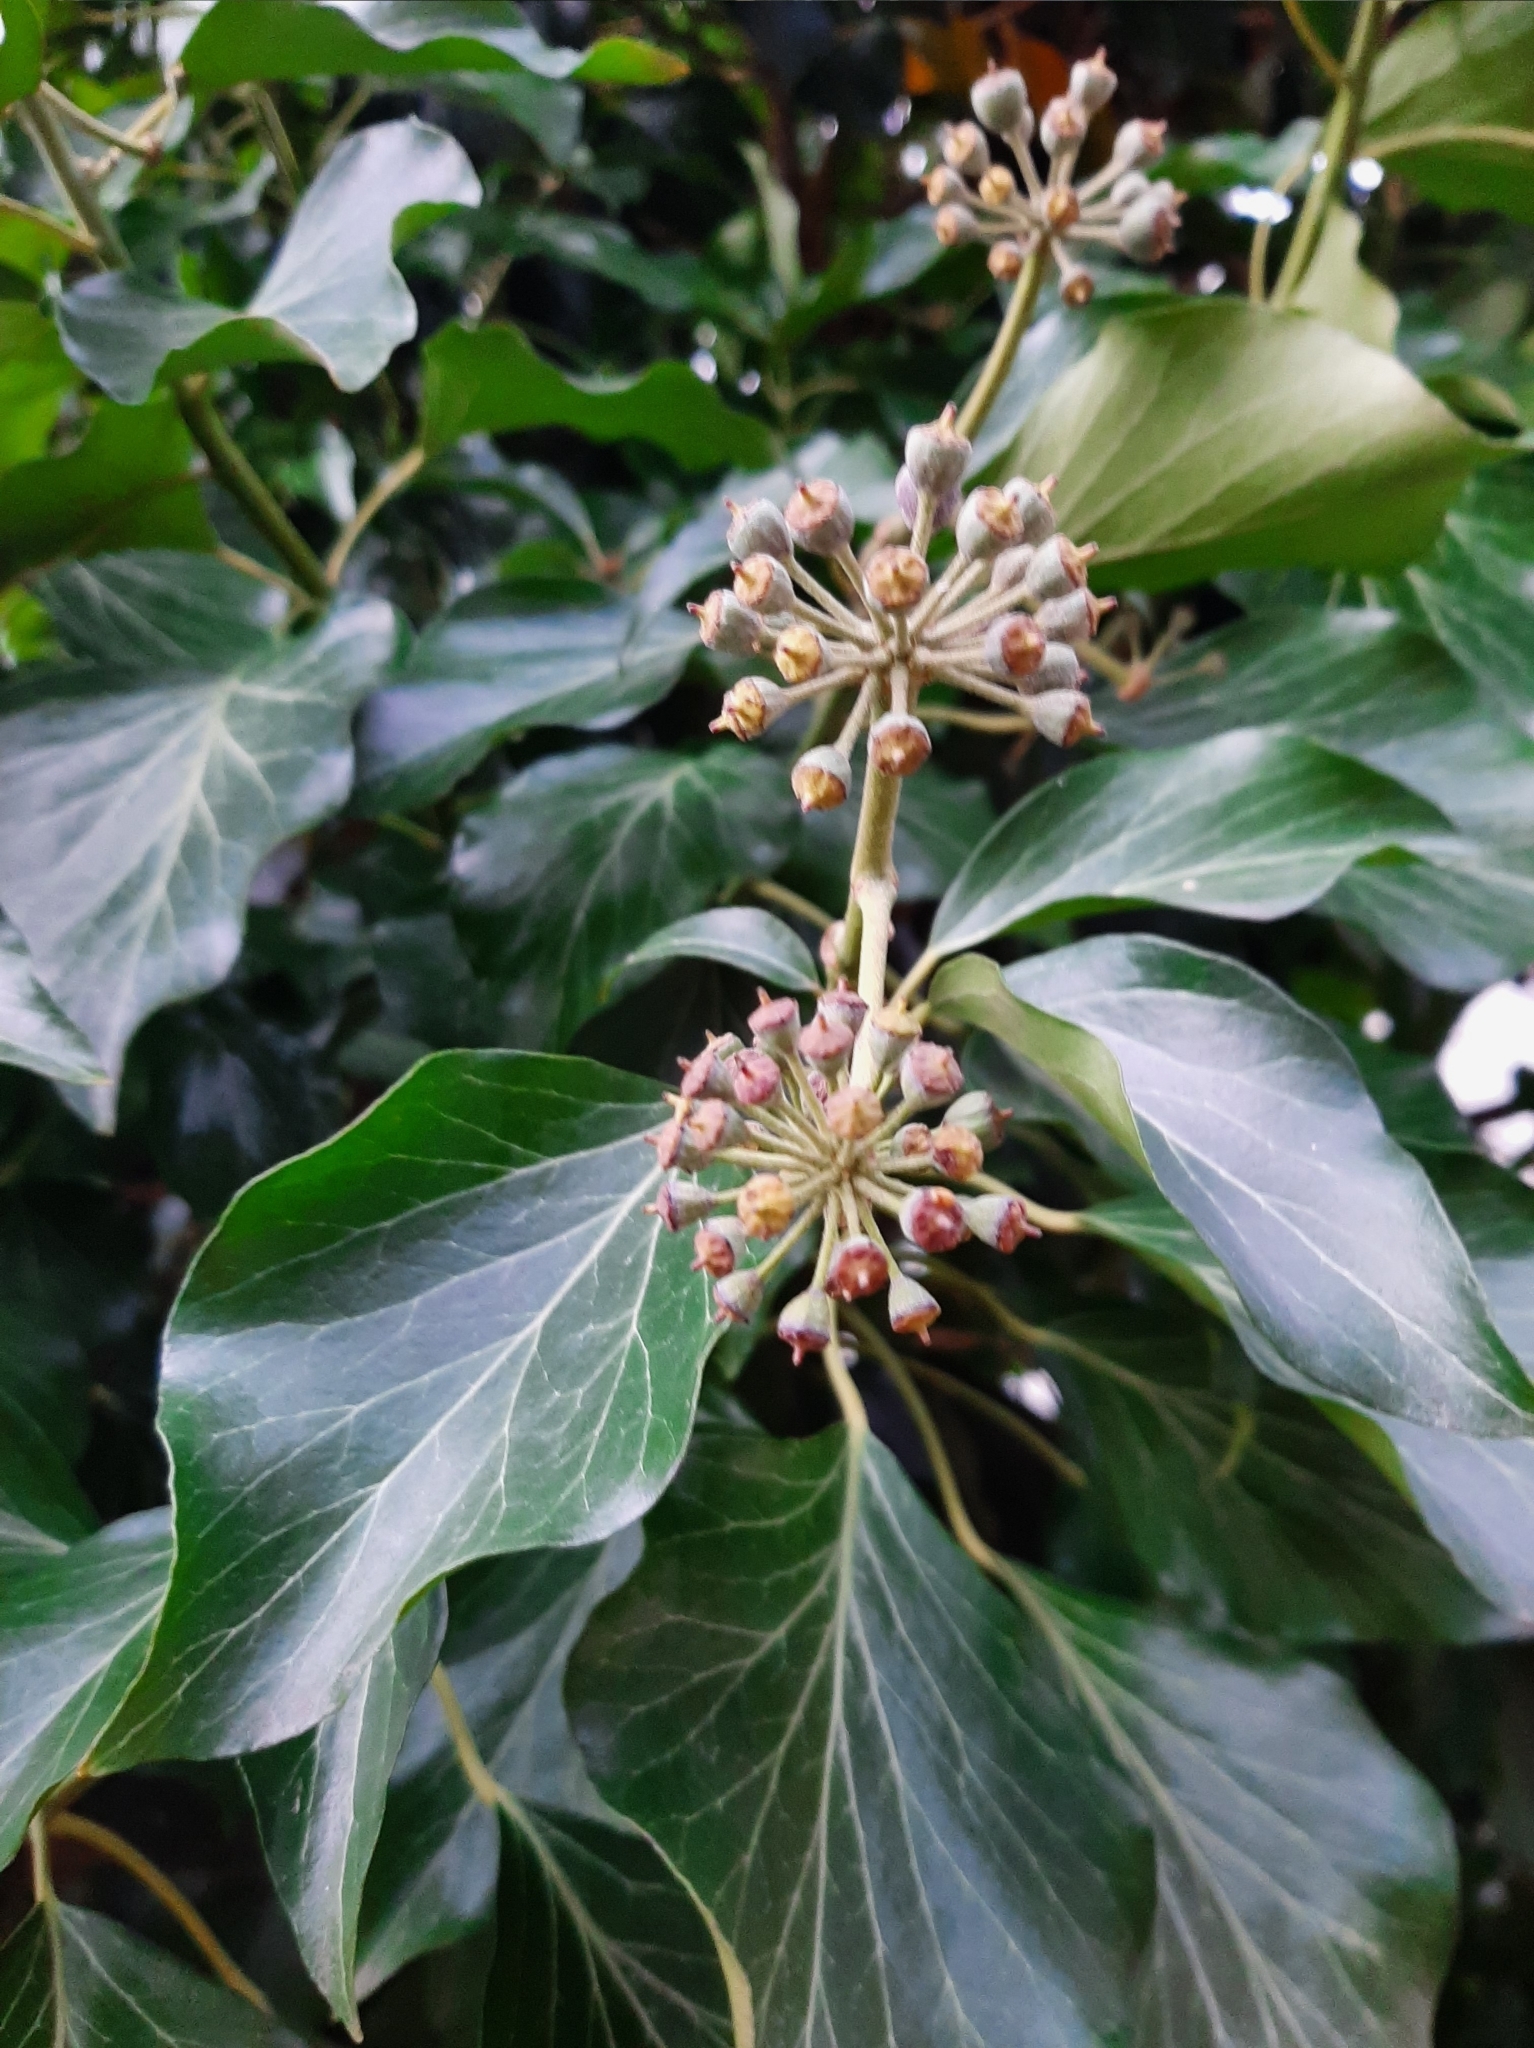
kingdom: Plantae
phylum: Tracheophyta
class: Magnoliopsida
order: Apiales
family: Araliaceae
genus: Hedera
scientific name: Hedera helix
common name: Ivy
